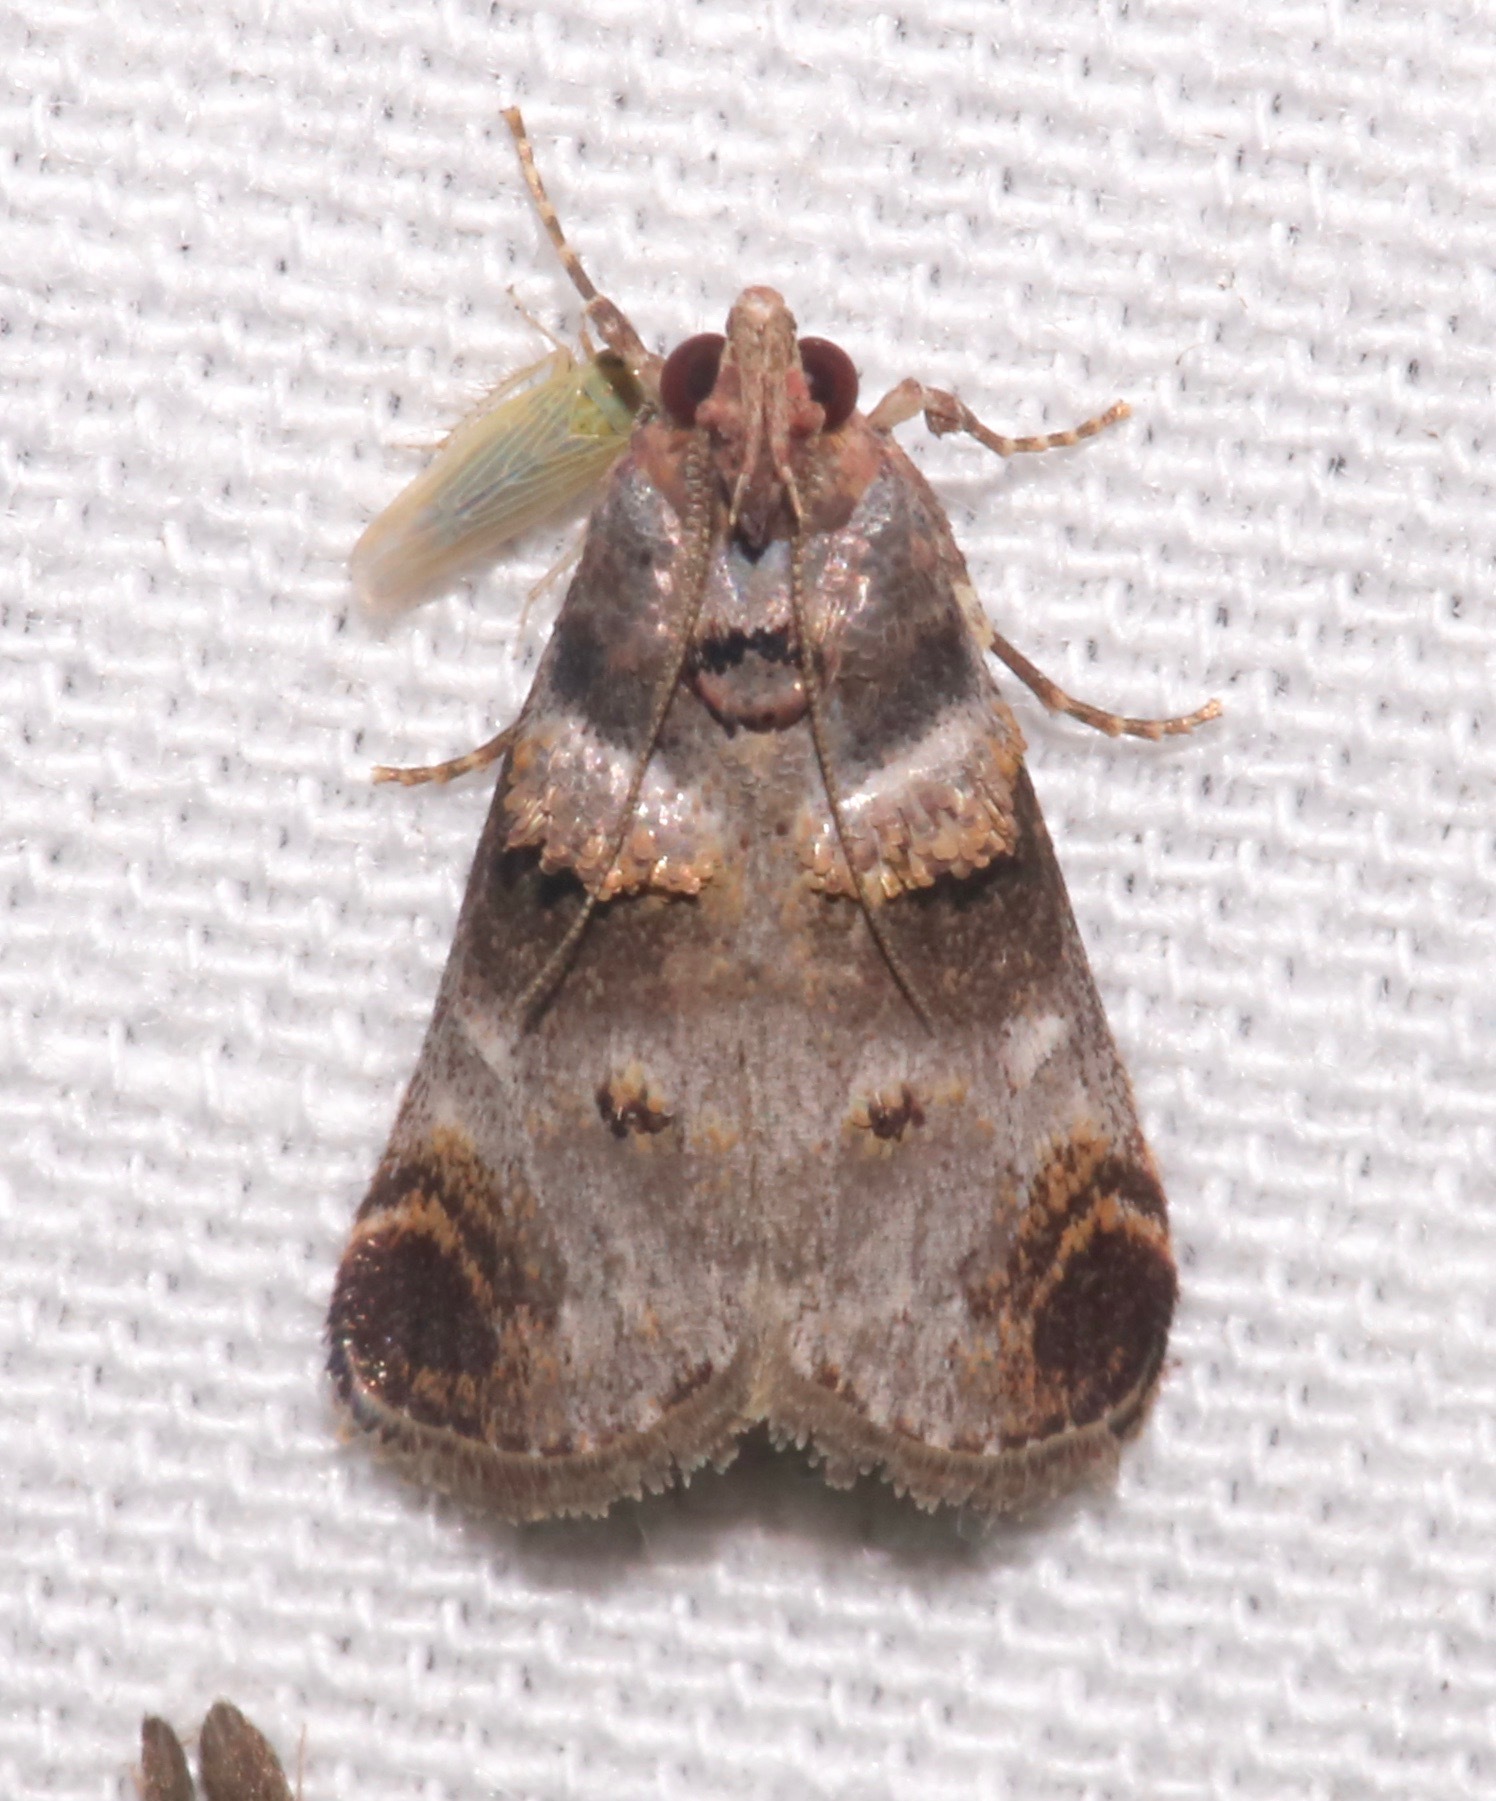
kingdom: Animalia
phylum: Arthropoda
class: Insecta
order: Lepidoptera
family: Pyralidae
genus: Oneida
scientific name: Oneida lunulalis
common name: Orange-tufted oneida moth
